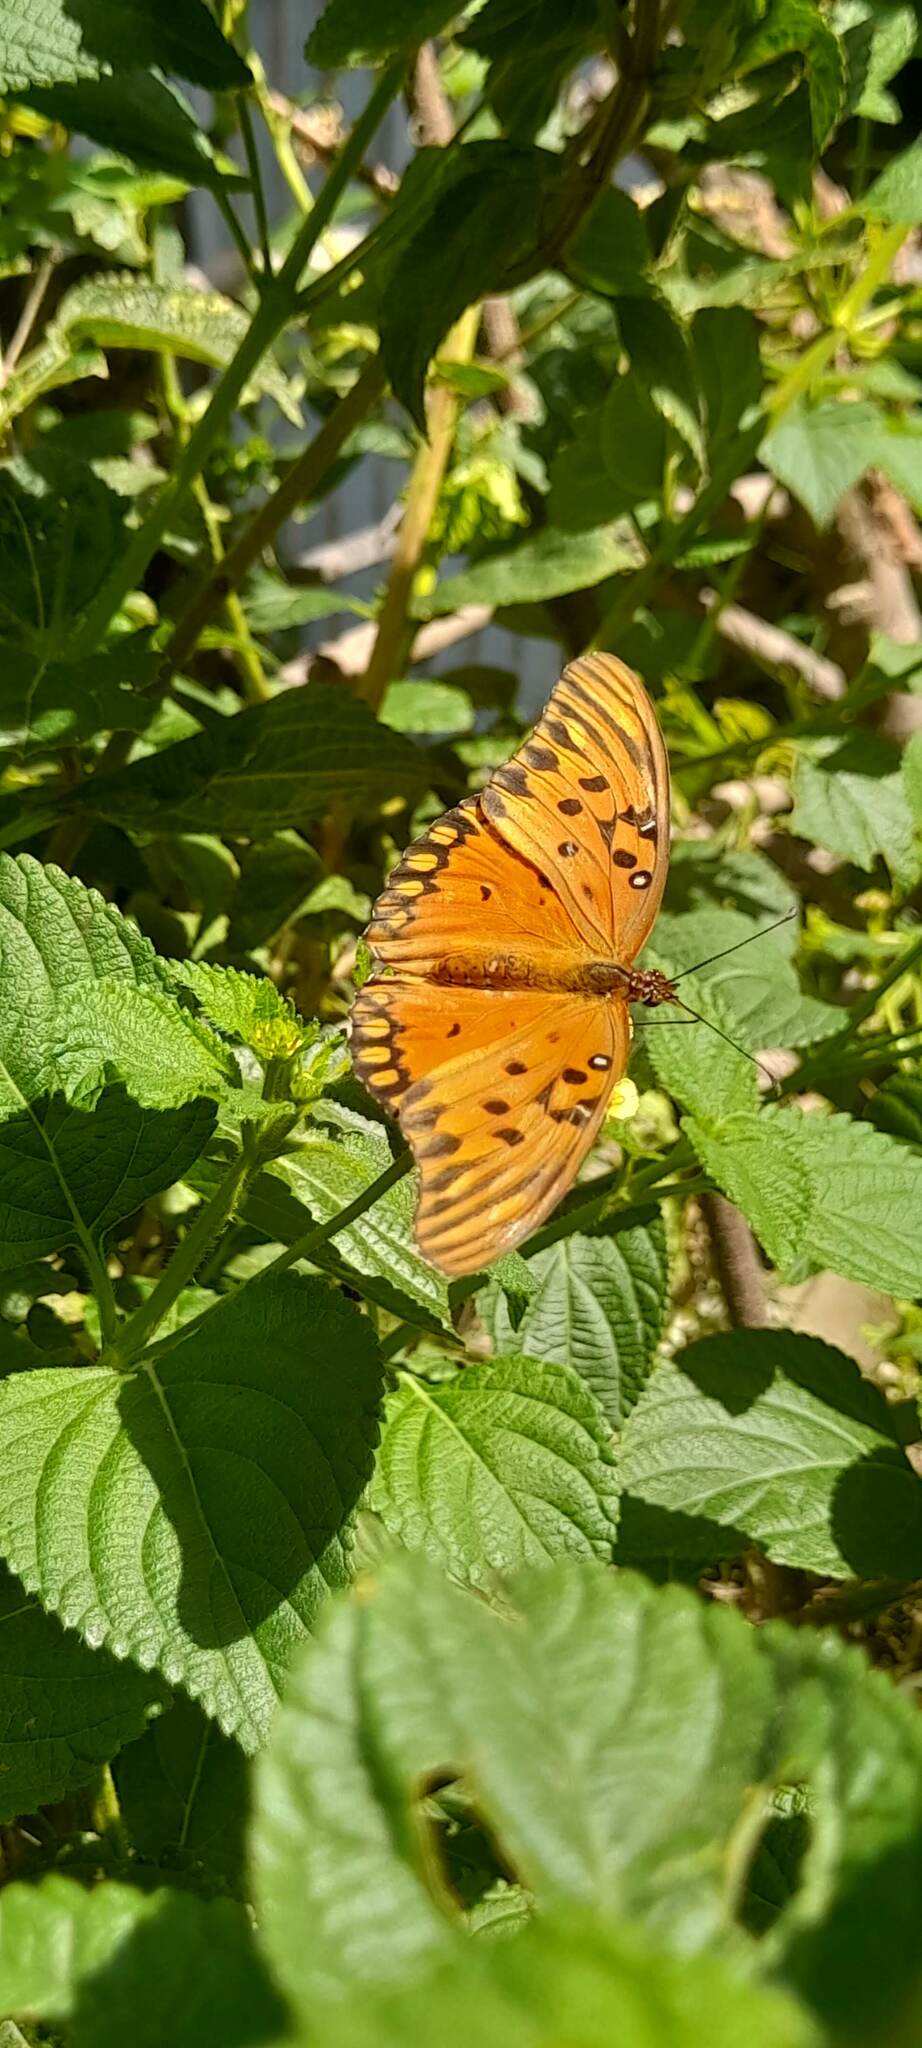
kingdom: Animalia
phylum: Arthropoda
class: Insecta
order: Lepidoptera
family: Nymphalidae
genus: Dione
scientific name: Dione vanillae
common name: Gulf fritillary
